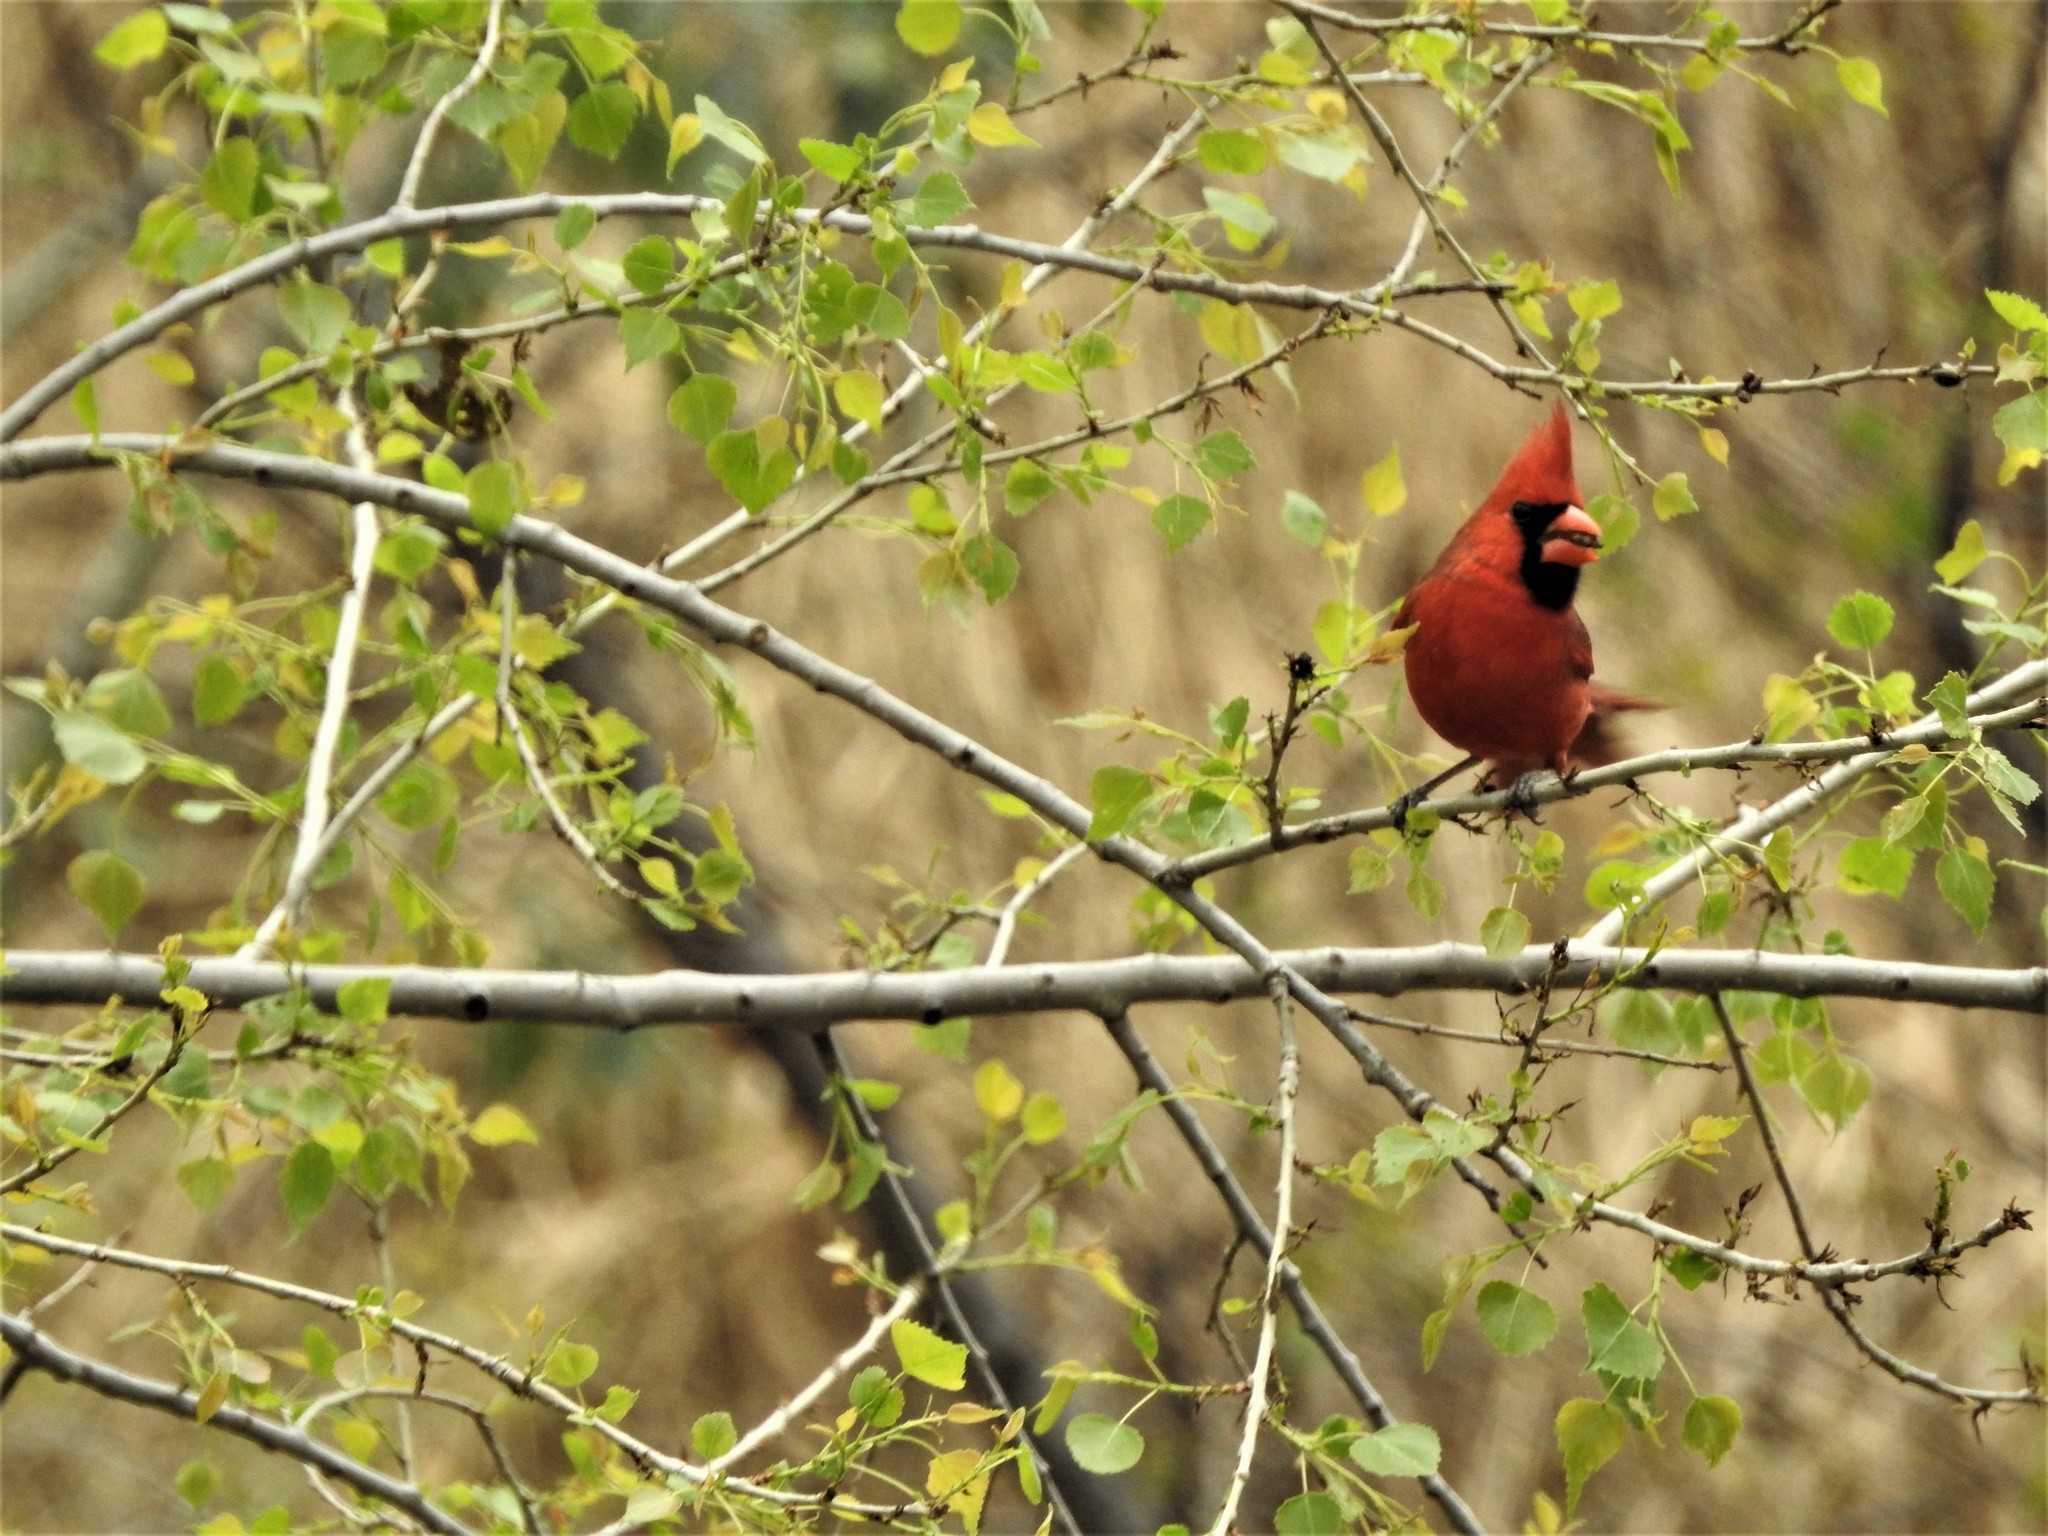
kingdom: Animalia
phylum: Chordata
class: Aves
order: Passeriformes
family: Cardinalidae
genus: Cardinalis
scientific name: Cardinalis cardinalis
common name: Northern cardinal
